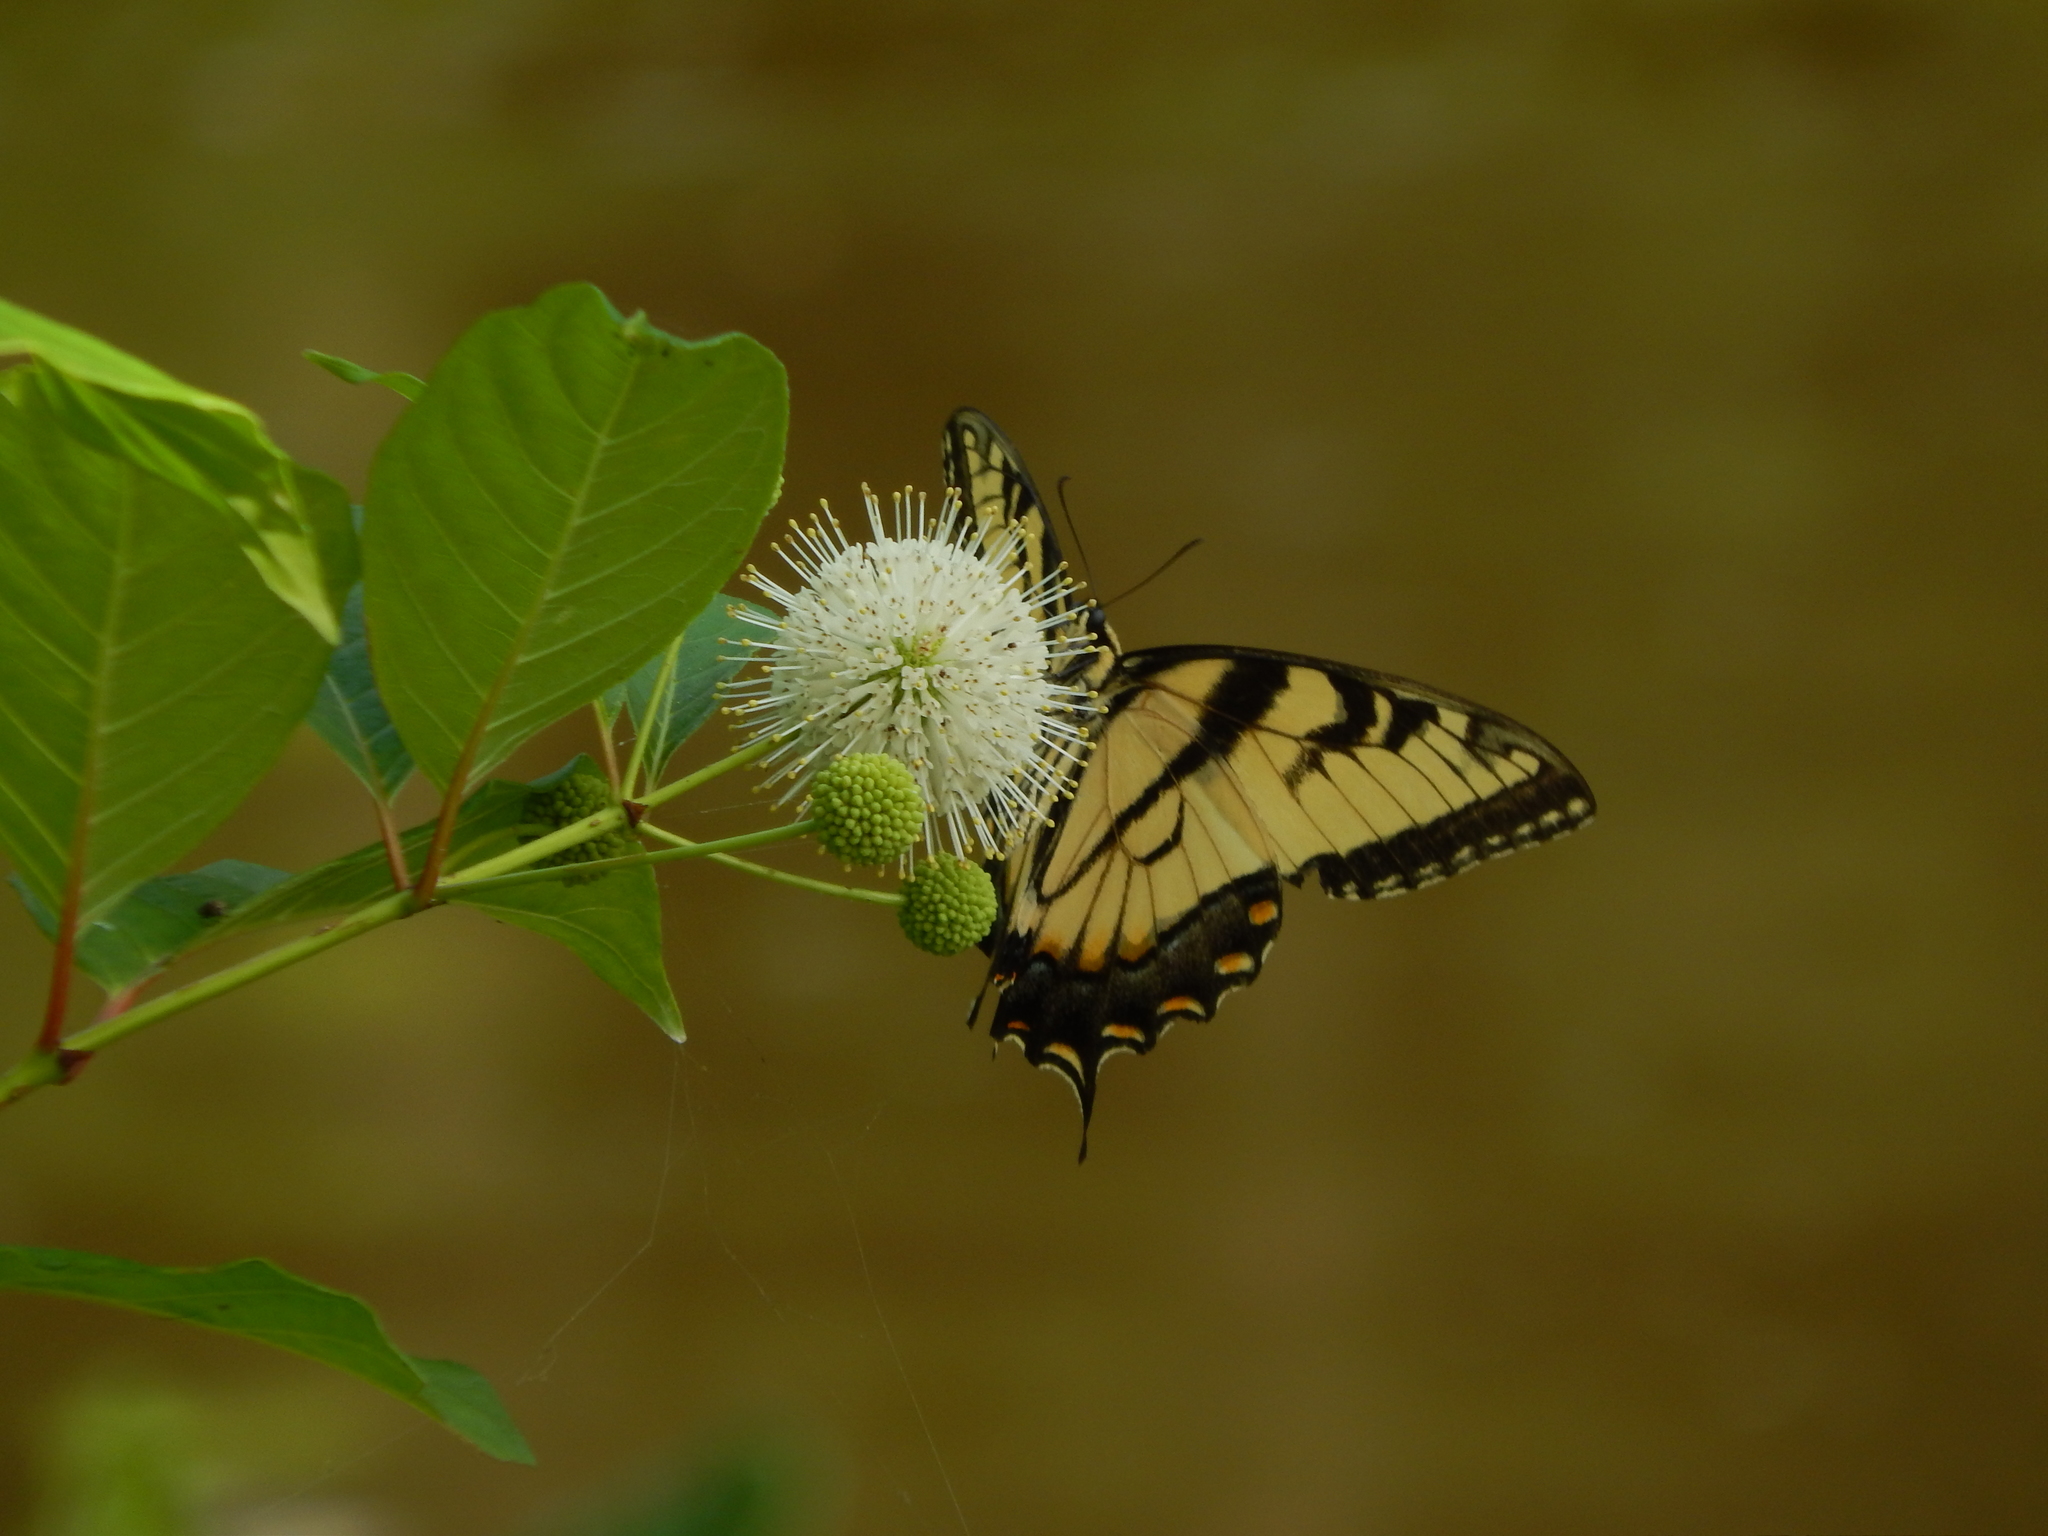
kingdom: Animalia
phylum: Arthropoda
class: Insecta
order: Lepidoptera
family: Papilionidae
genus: Papilio
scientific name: Papilio glaucus
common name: Tiger swallowtail
